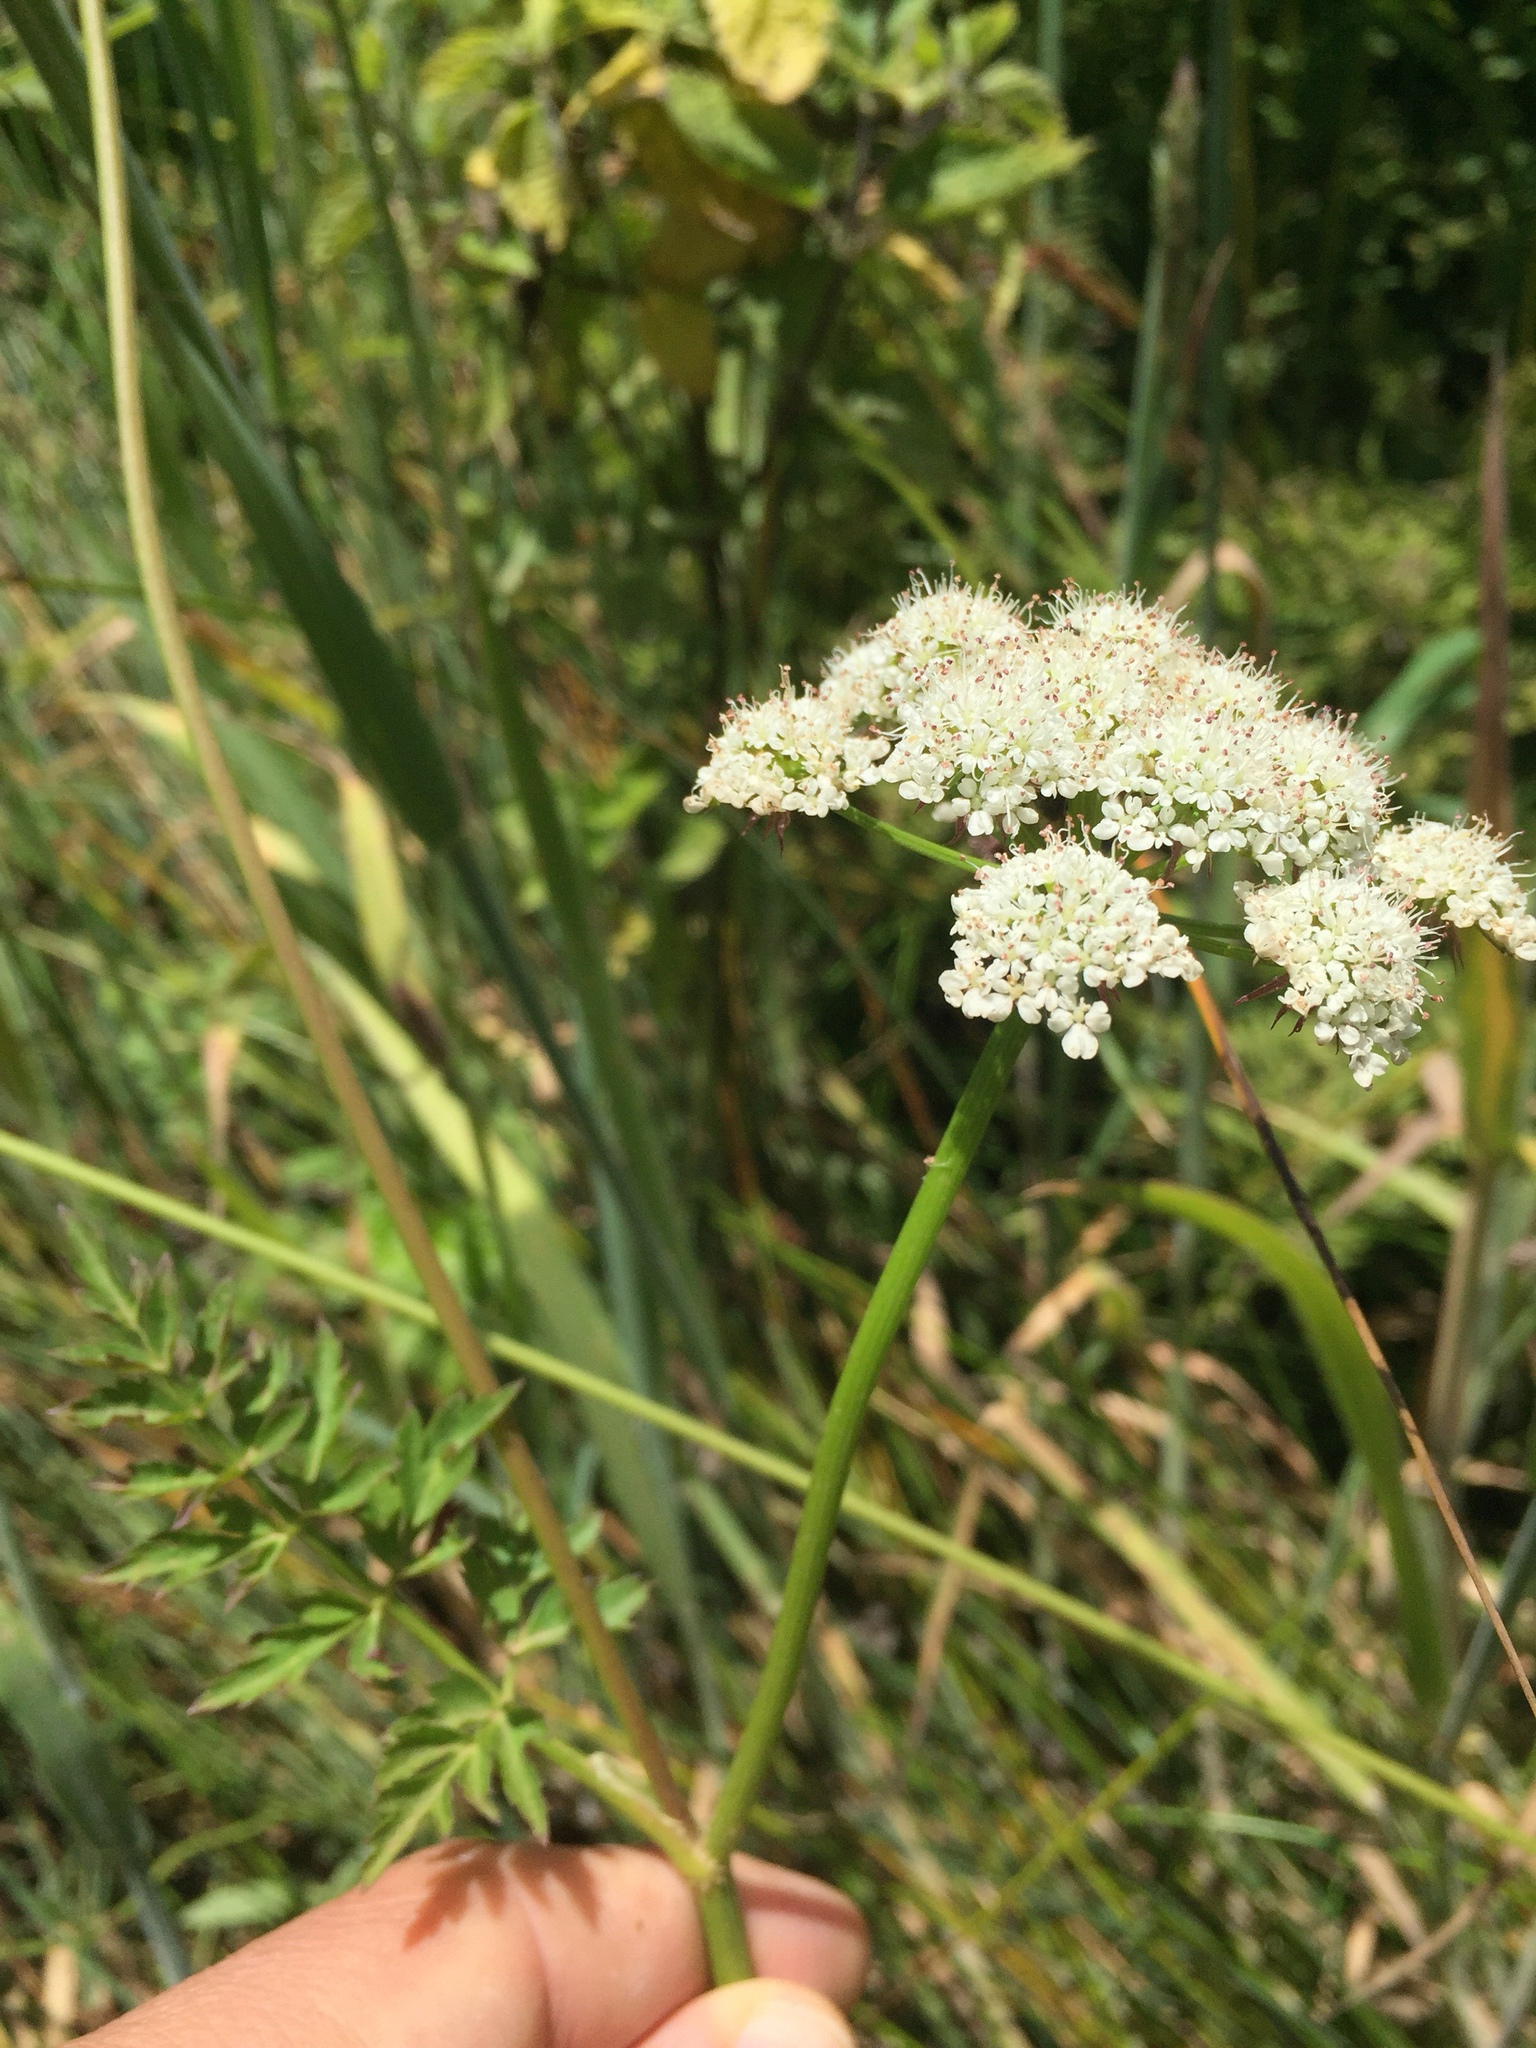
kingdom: Plantae
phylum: Tracheophyta
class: Magnoliopsida
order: Apiales
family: Apiaceae
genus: Oenanthe
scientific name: Oenanthe sarmentosa
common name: American water-parsley
